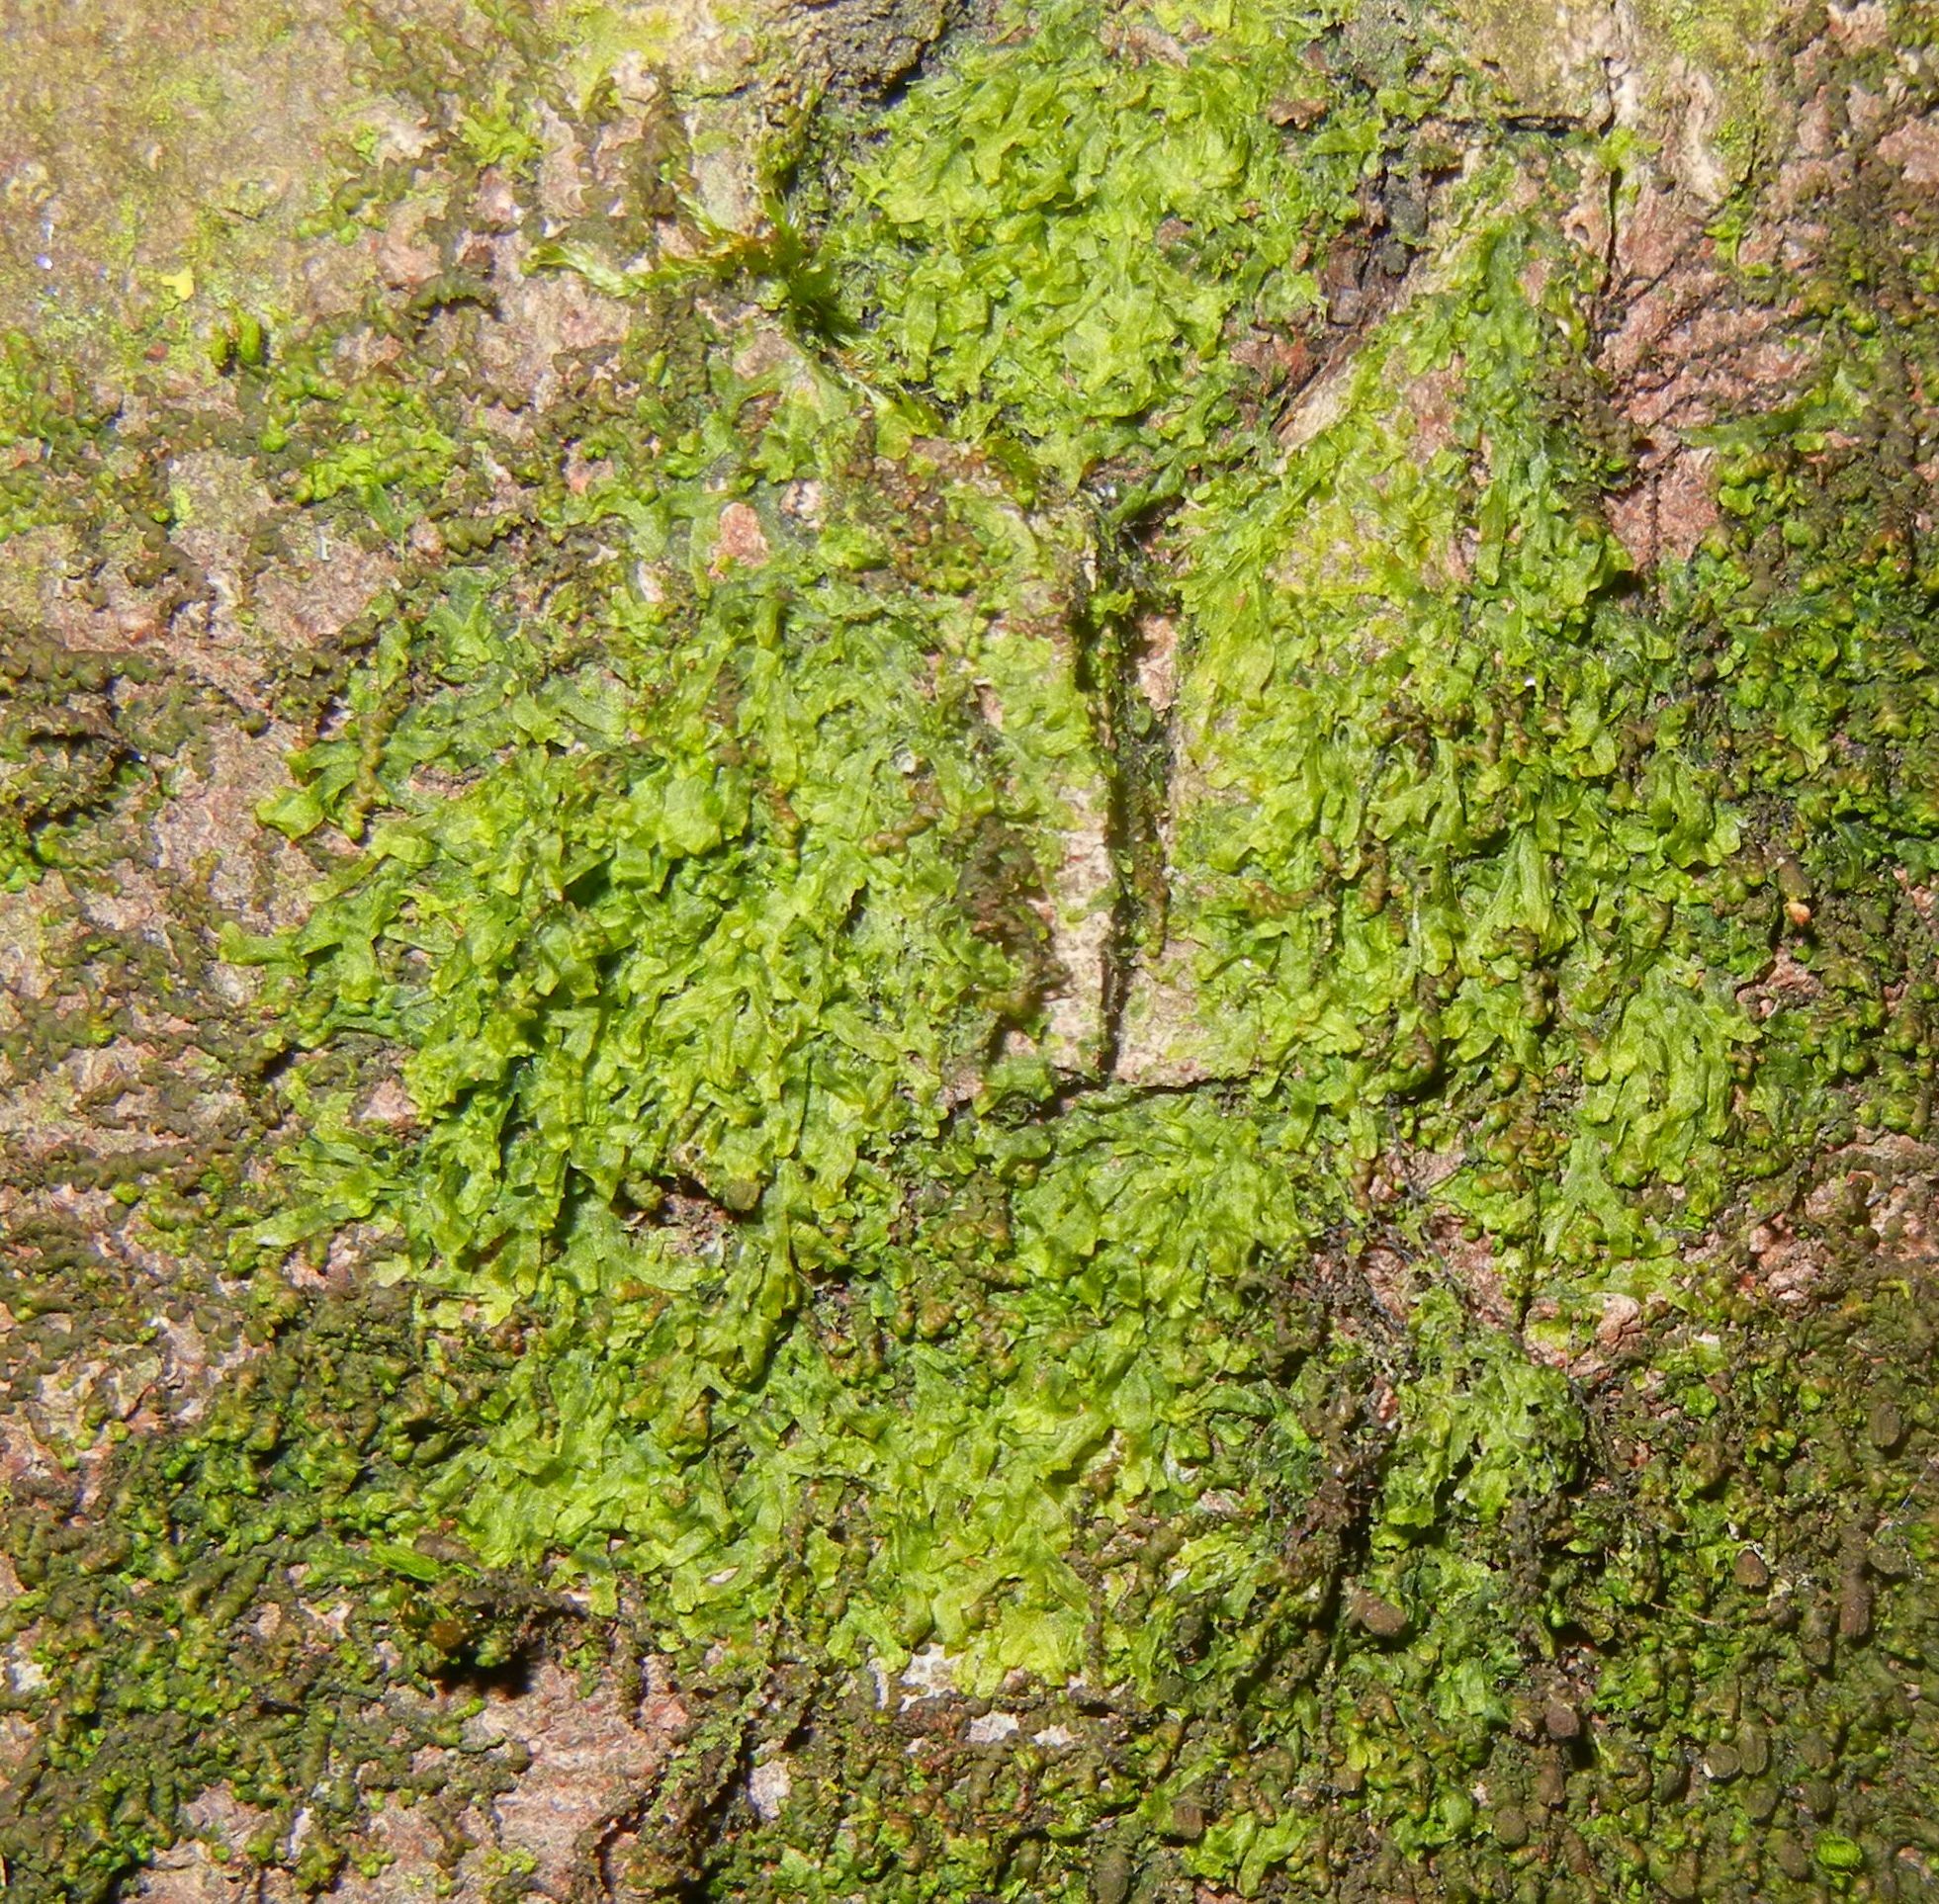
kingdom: Plantae
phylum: Marchantiophyta
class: Jungermanniopsida
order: Metzgeriales
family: Metzgeriaceae
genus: Metzgeria
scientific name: Metzgeria furcata
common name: Forked veilwort
